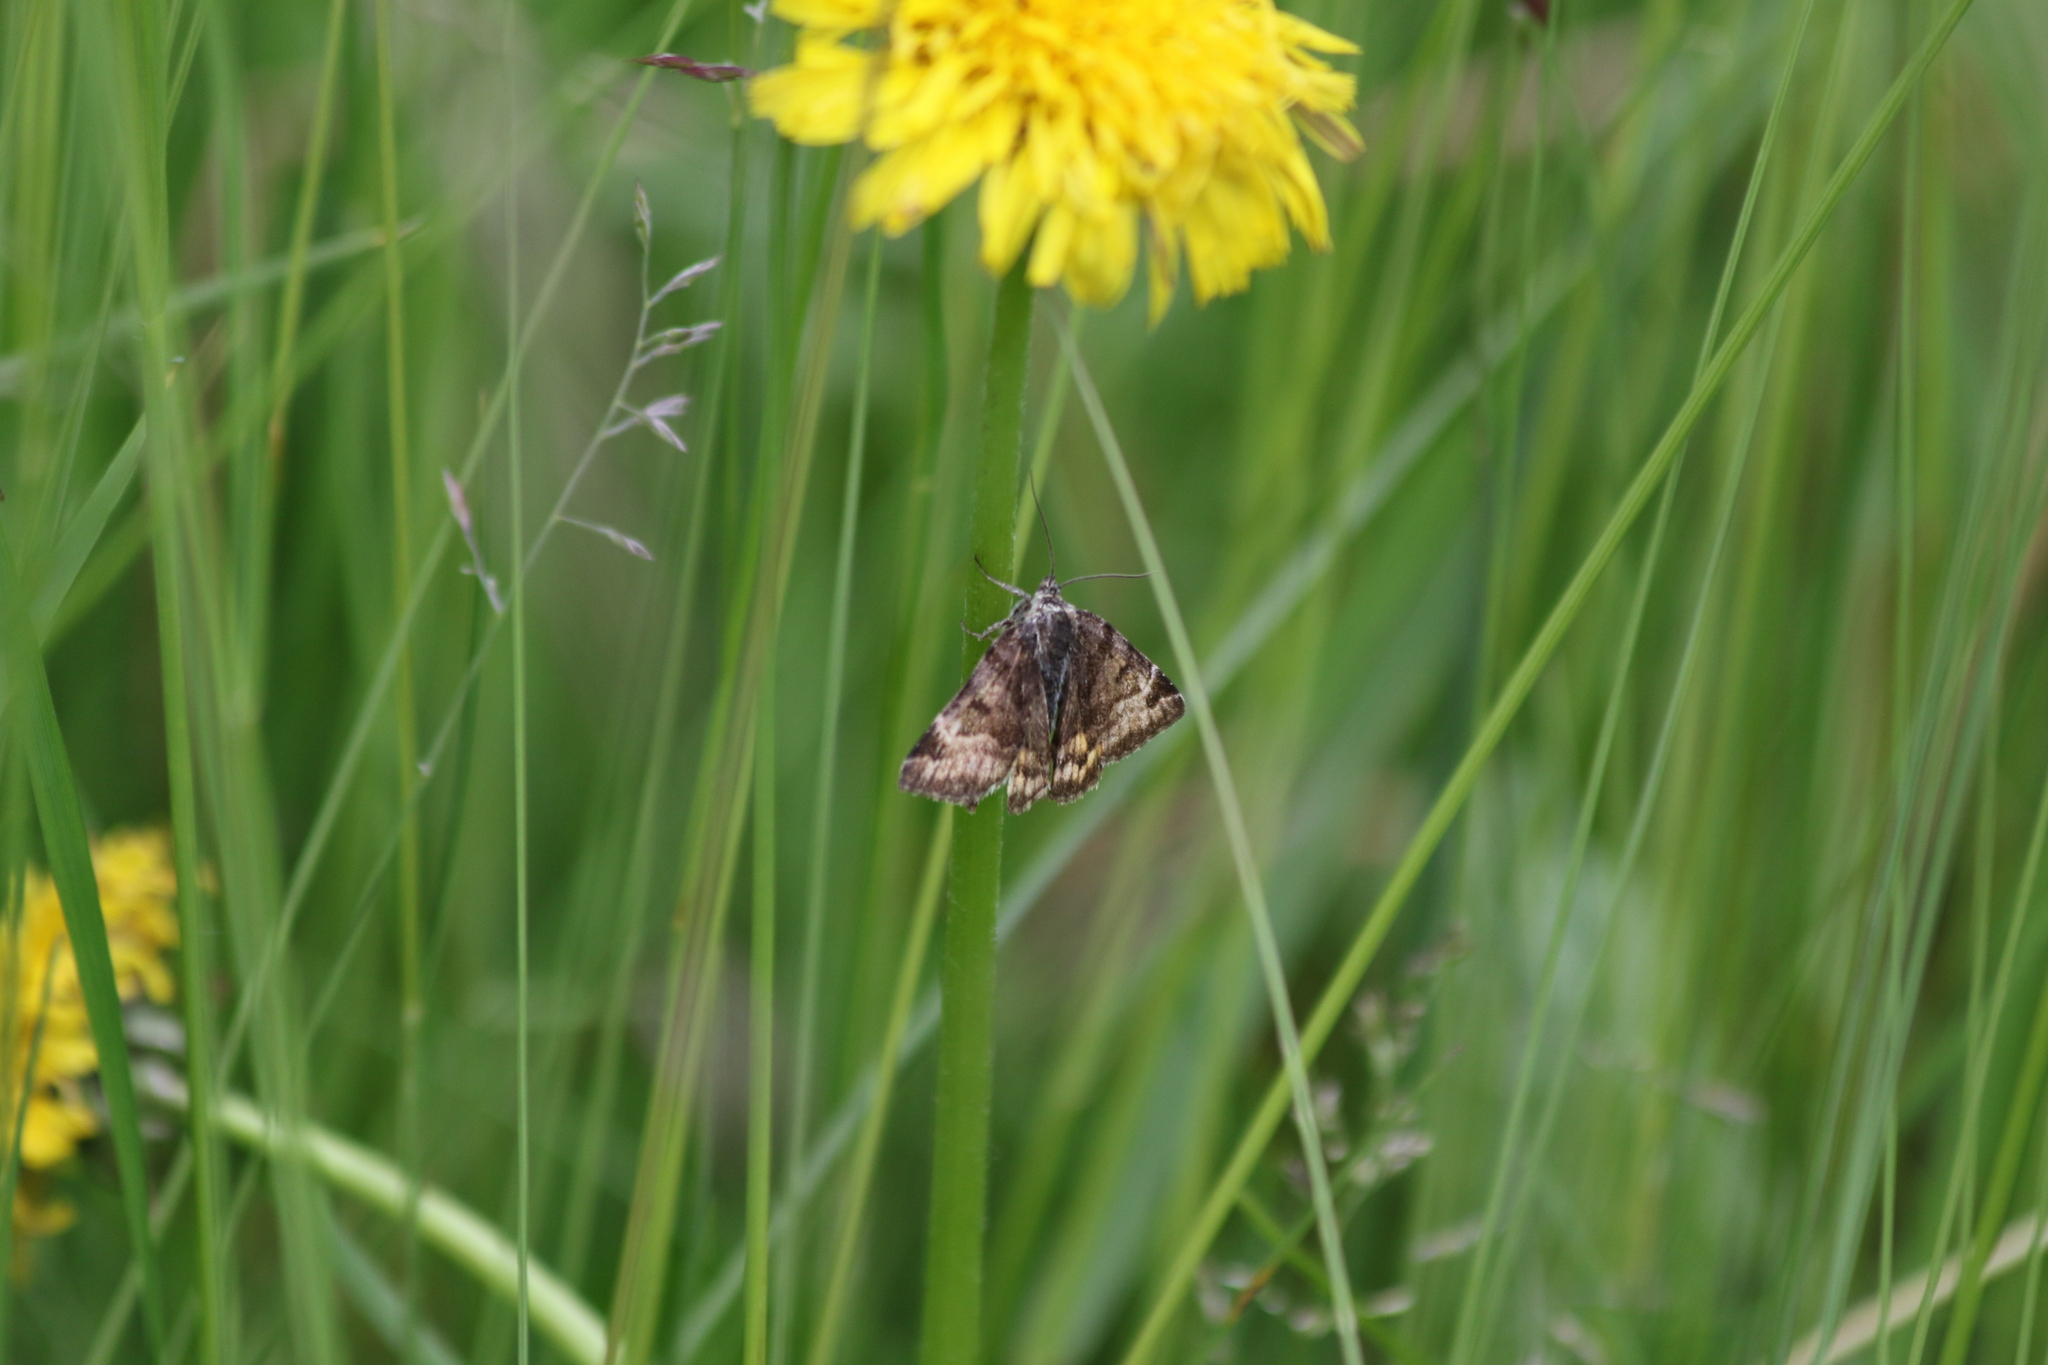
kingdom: Animalia
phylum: Arthropoda
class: Insecta
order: Lepidoptera
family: Erebidae
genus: Euclidia
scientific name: Euclidia glyphica
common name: Burnet companion
